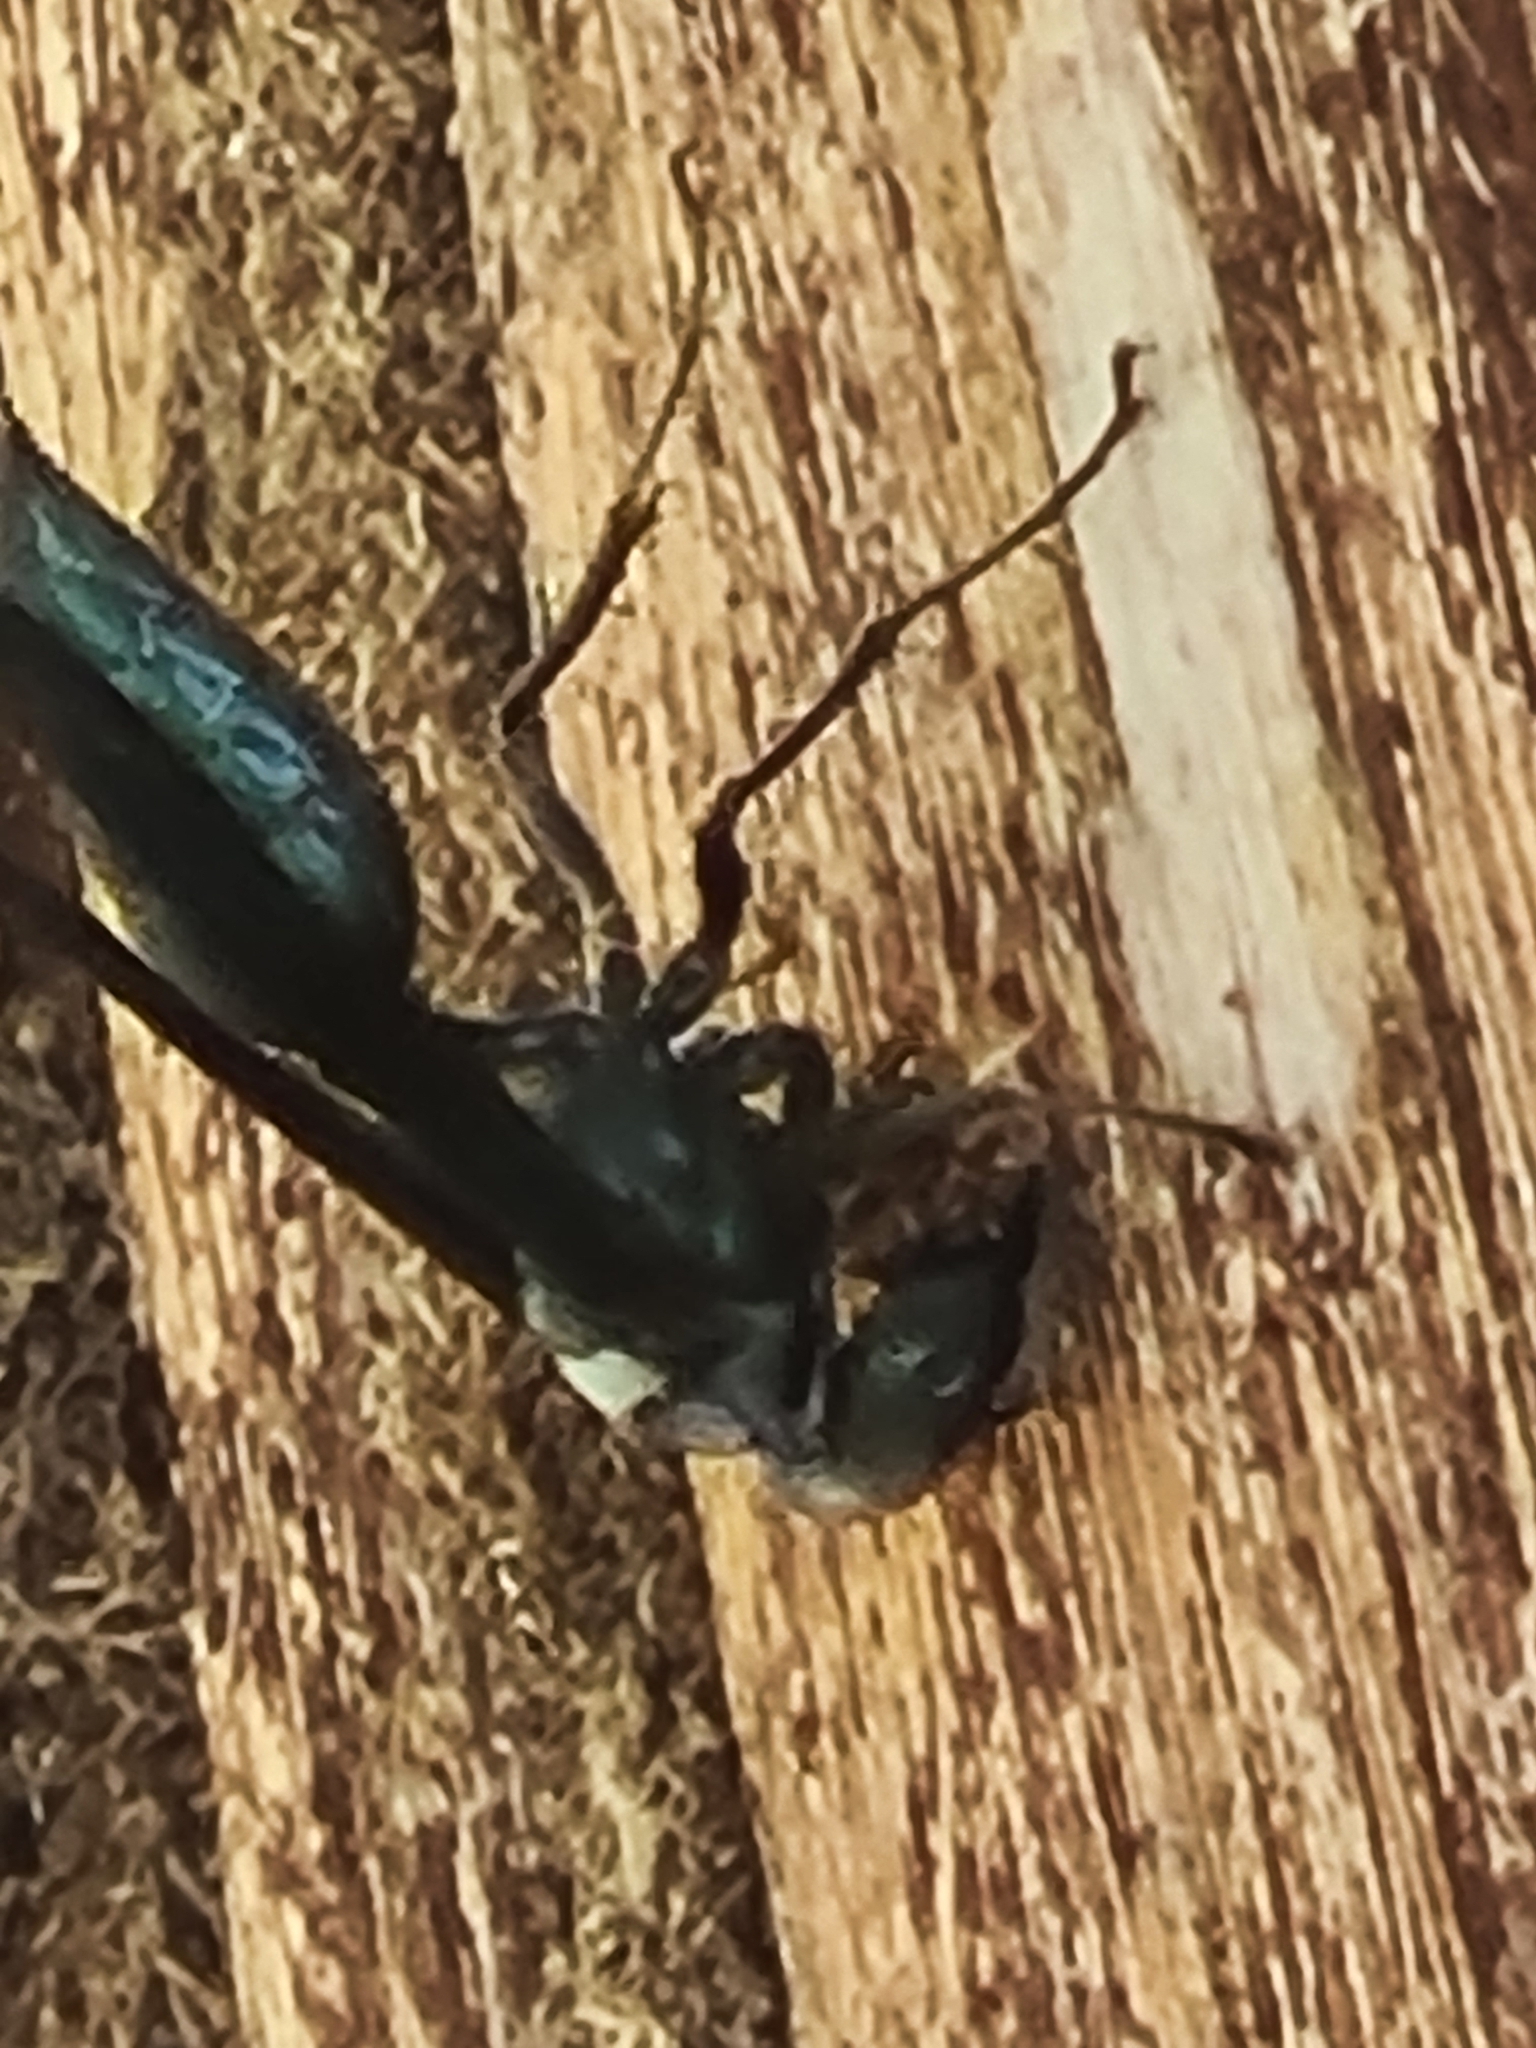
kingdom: Animalia
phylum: Arthropoda
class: Insecta
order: Hymenoptera
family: Vespidae
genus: Synoeca
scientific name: Synoeca surinama
